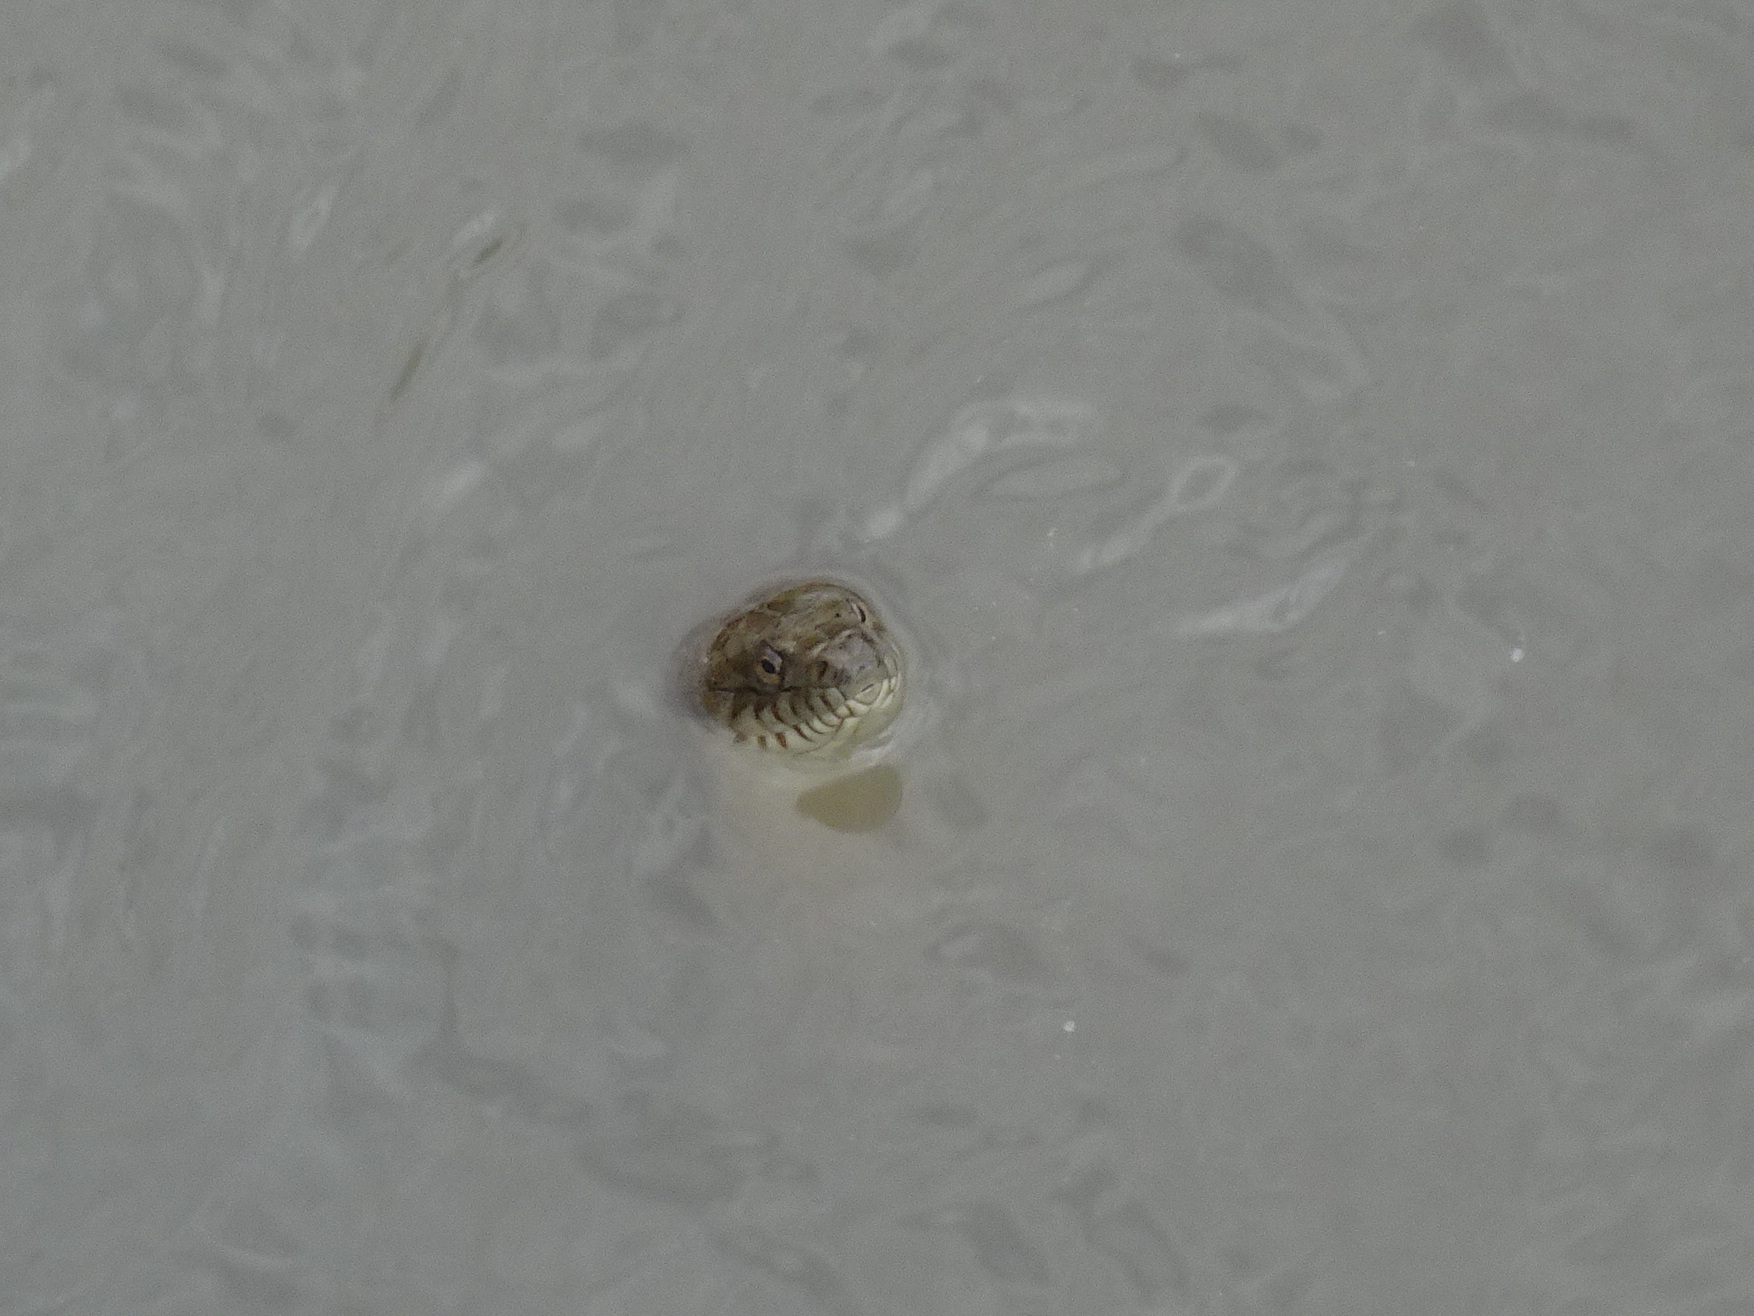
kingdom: Animalia
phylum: Chordata
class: Squamata
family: Colubridae
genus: Nerodia
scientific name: Nerodia sipedon
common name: Northern water snake
